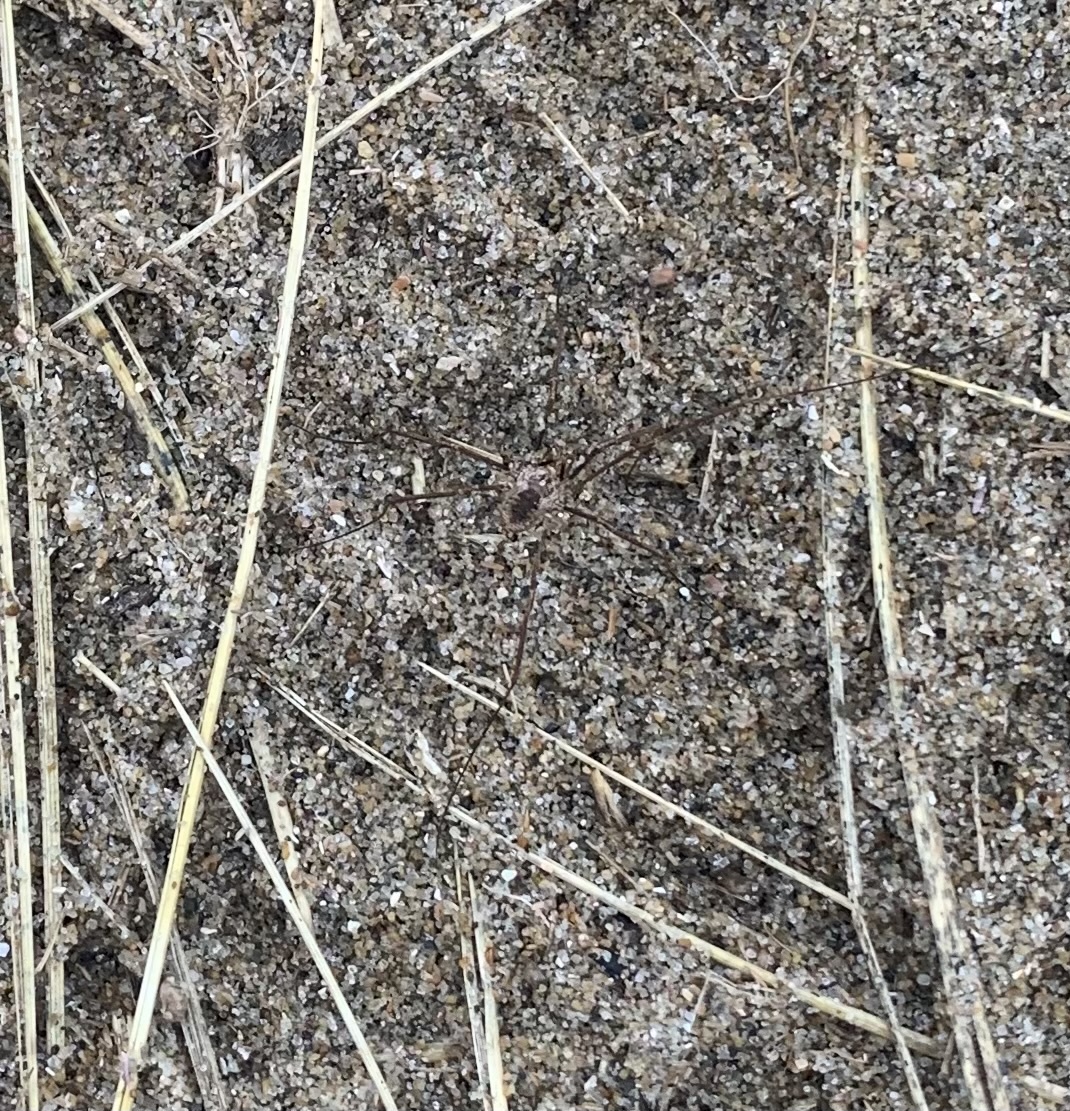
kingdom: Animalia
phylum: Arthropoda
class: Arachnida
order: Opiliones
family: Phalangiidae
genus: Phalangium
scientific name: Phalangium opilio
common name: Daddy longleg
